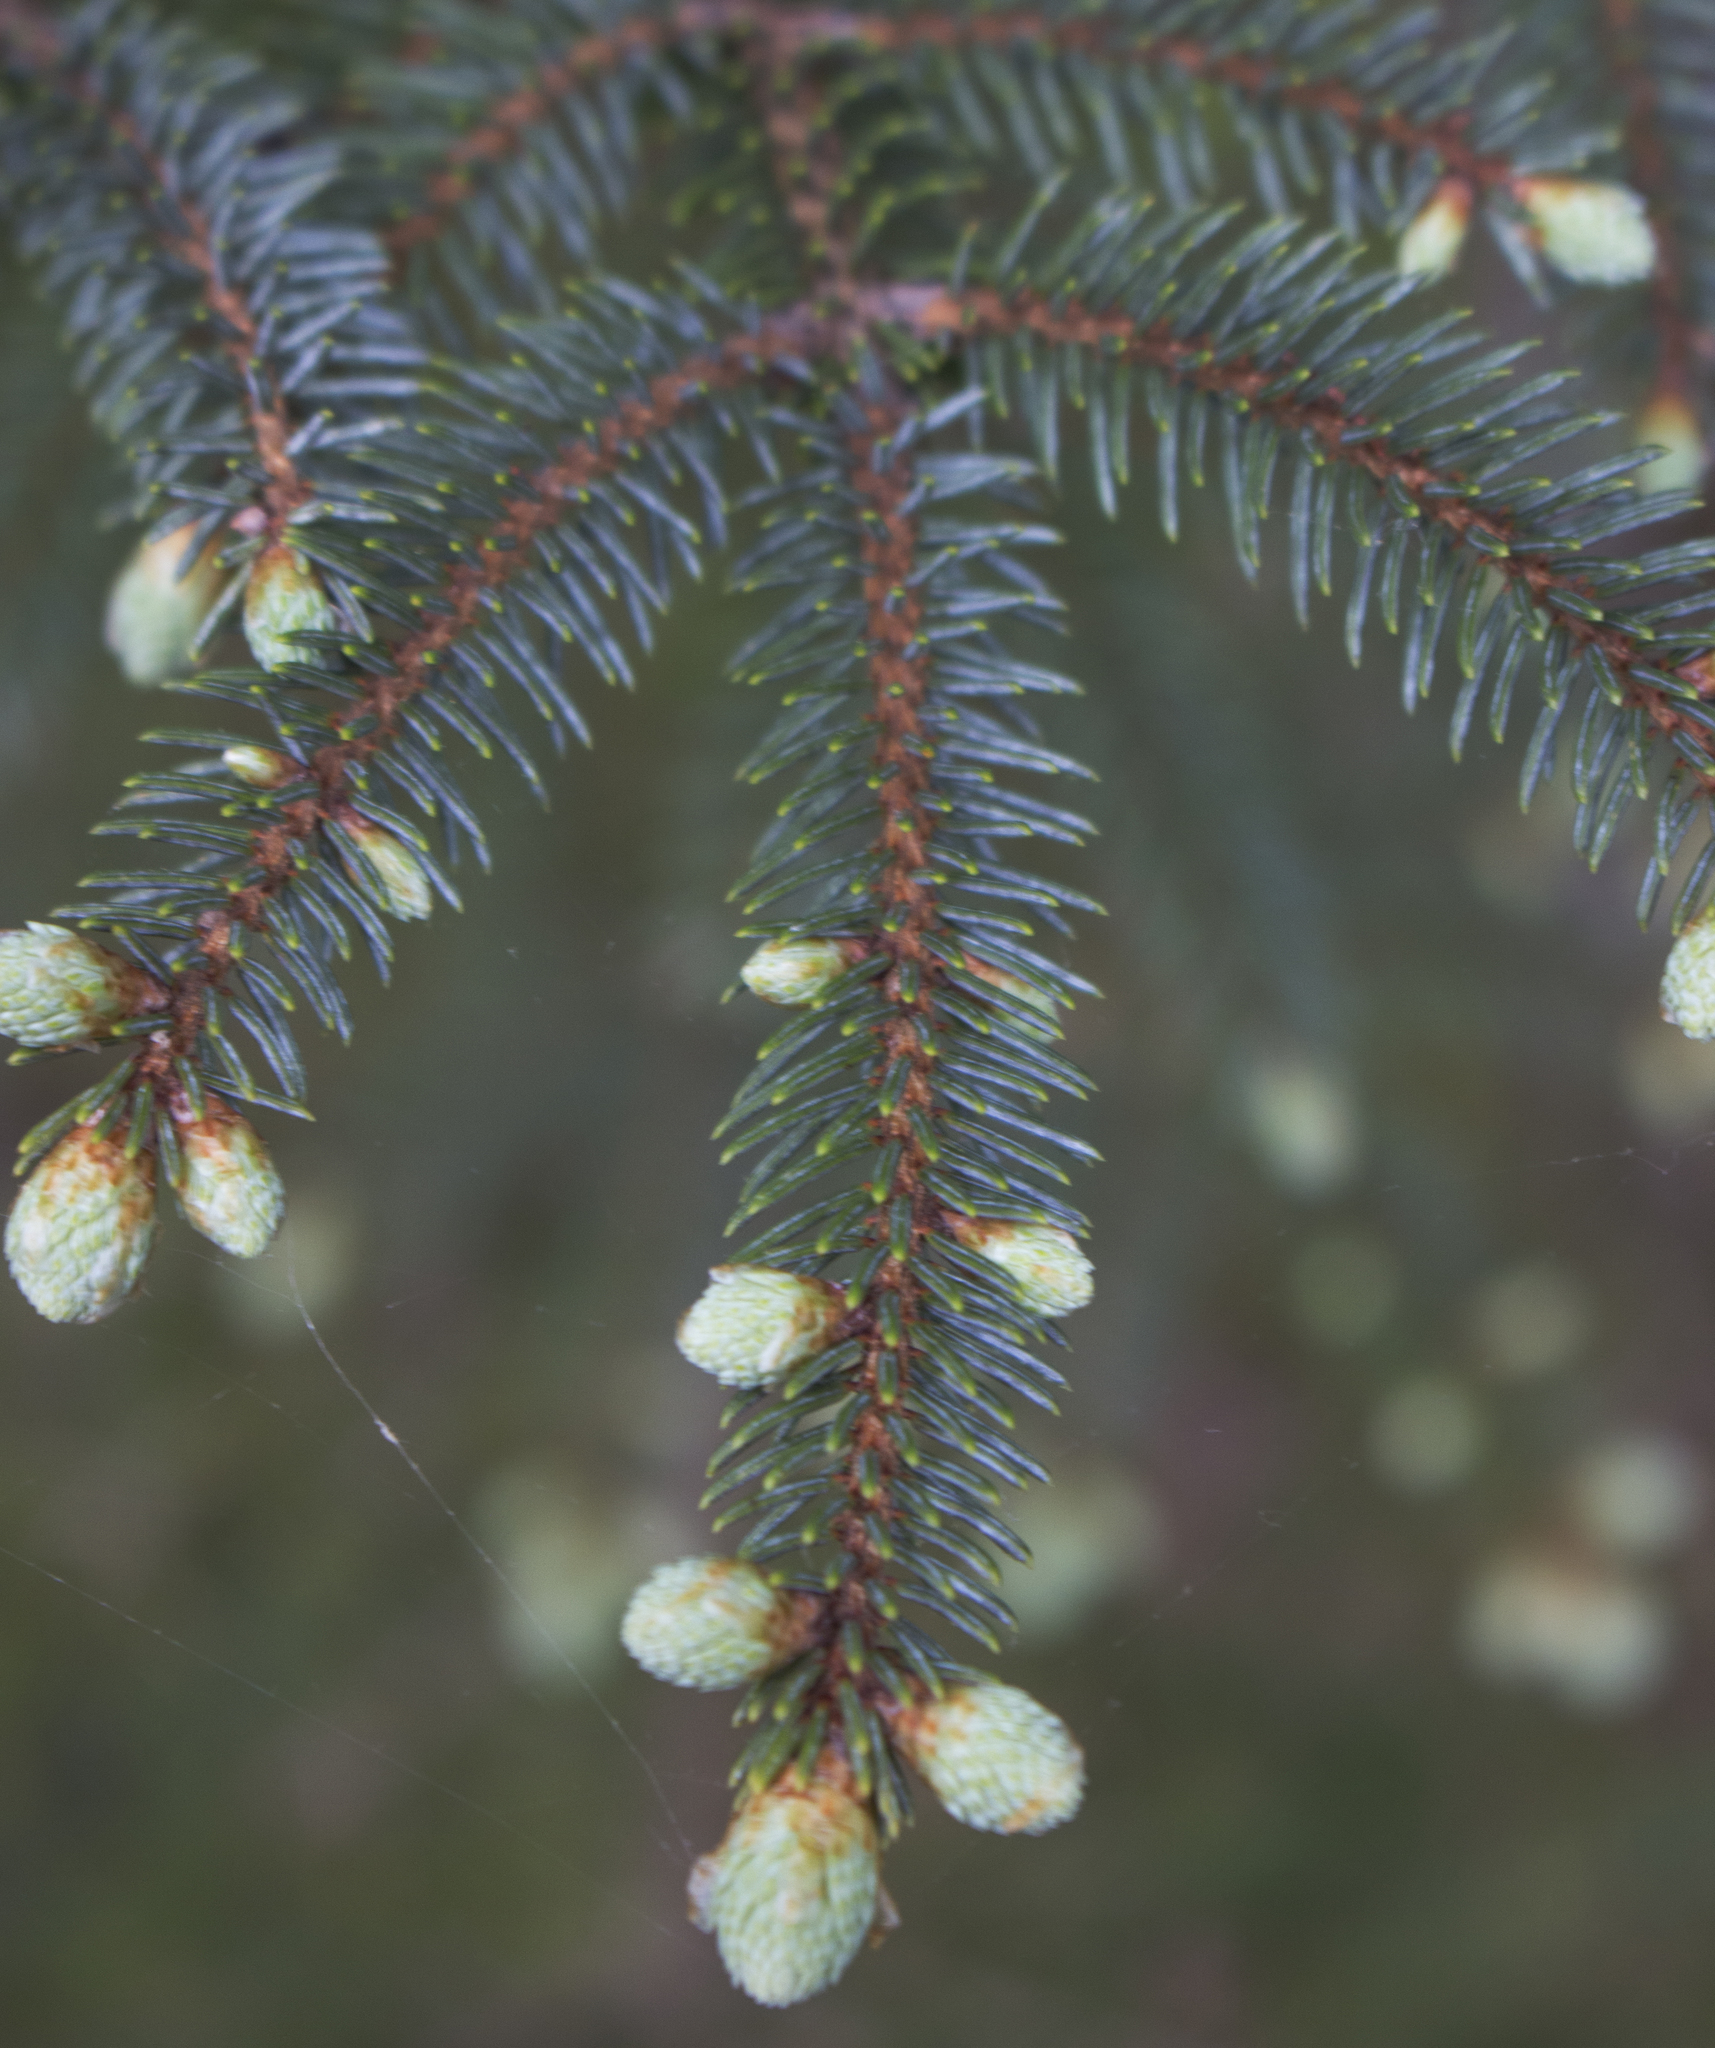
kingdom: Plantae
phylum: Tracheophyta
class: Pinopsida
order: Pinales
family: Pinaceae
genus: Picea
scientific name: Picea mariana
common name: Black spruce
